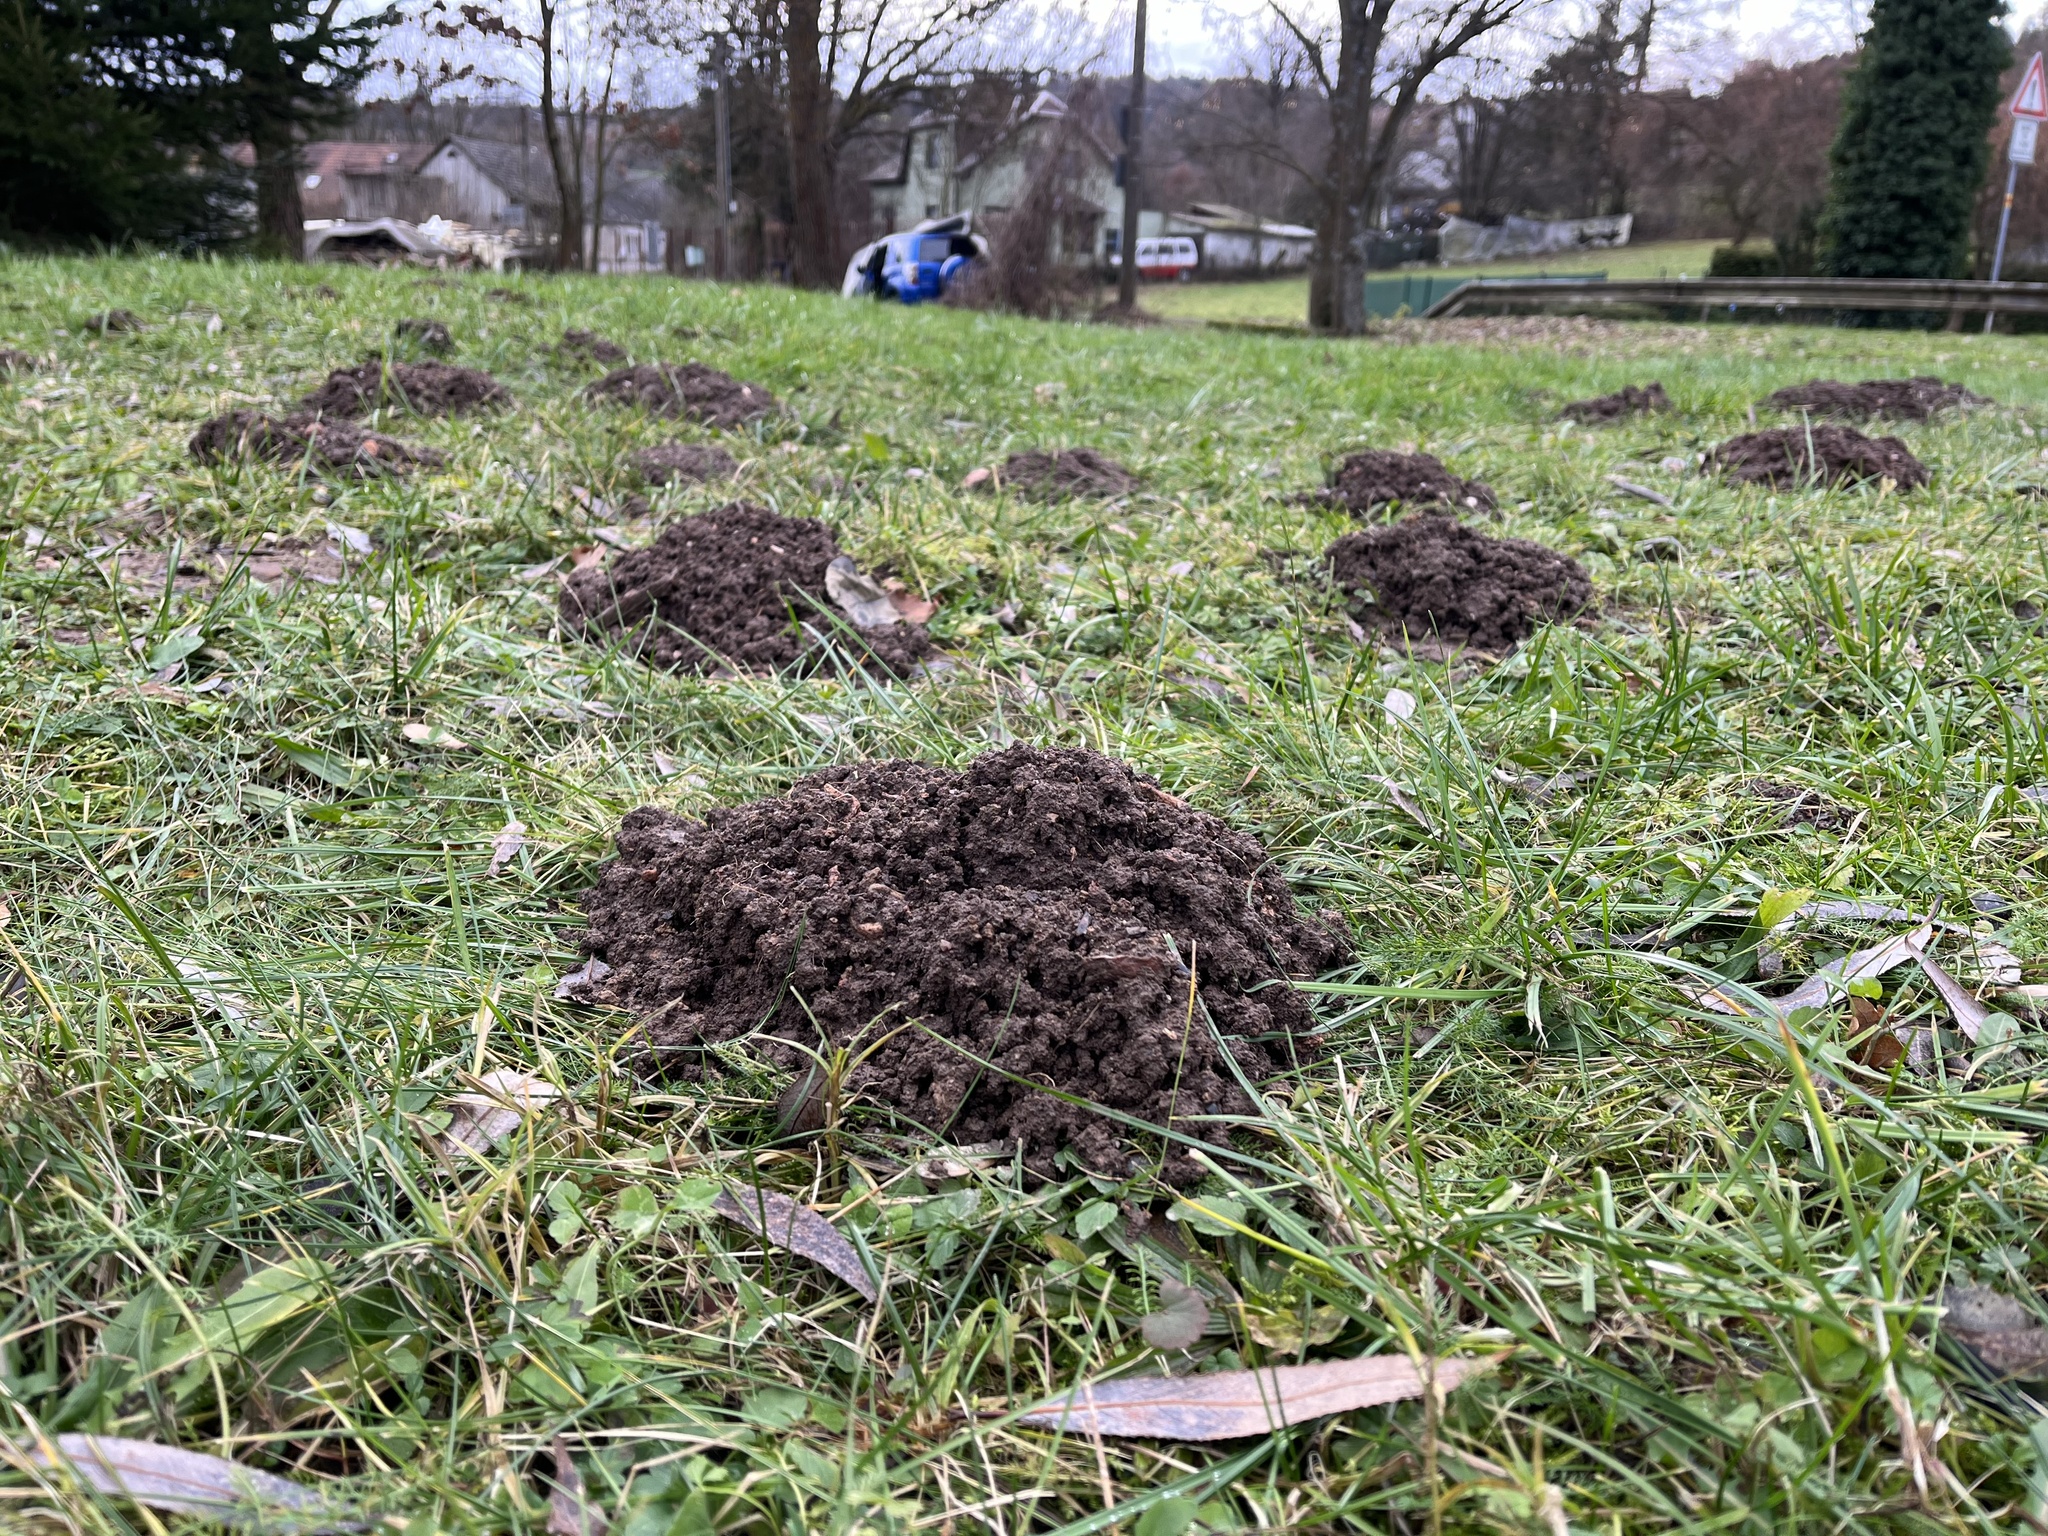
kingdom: Animalia
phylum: Chordata
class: Mammalia
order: Soricomorpha
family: Talpidae
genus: Talpa
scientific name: Talpa europaea
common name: European mole
